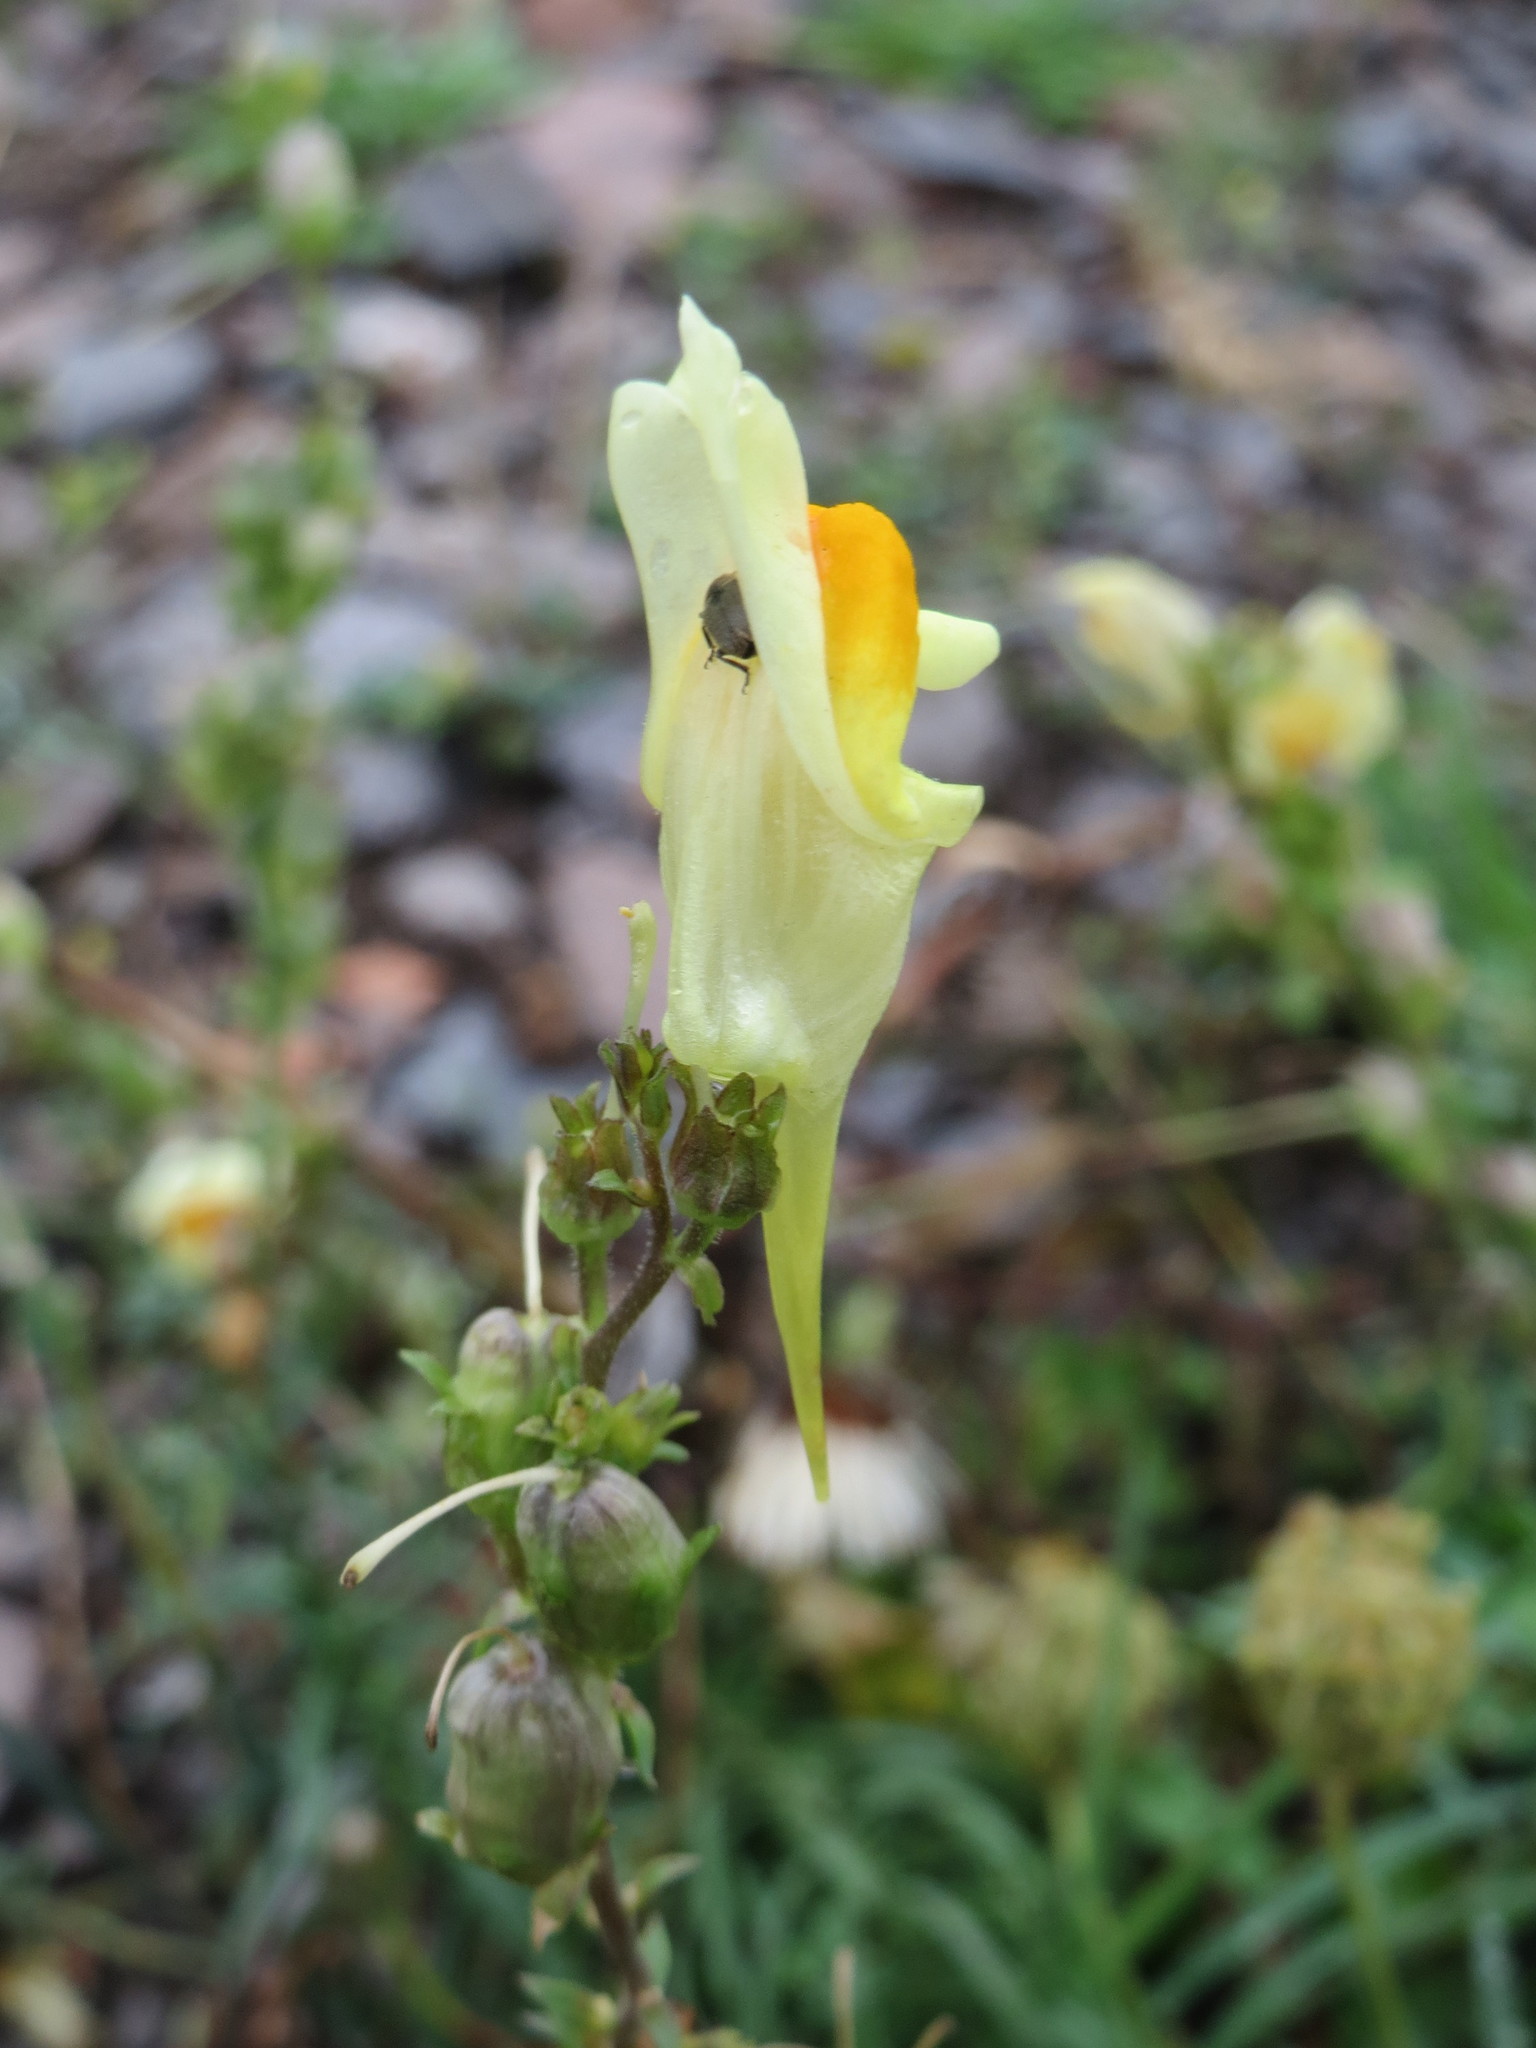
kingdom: Plantae
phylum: Tracheophyta
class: Magnoliopsida
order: Lamiales
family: Plantaginaceae
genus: Linaria
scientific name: Linaria vulgaris
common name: Butter and eggs
